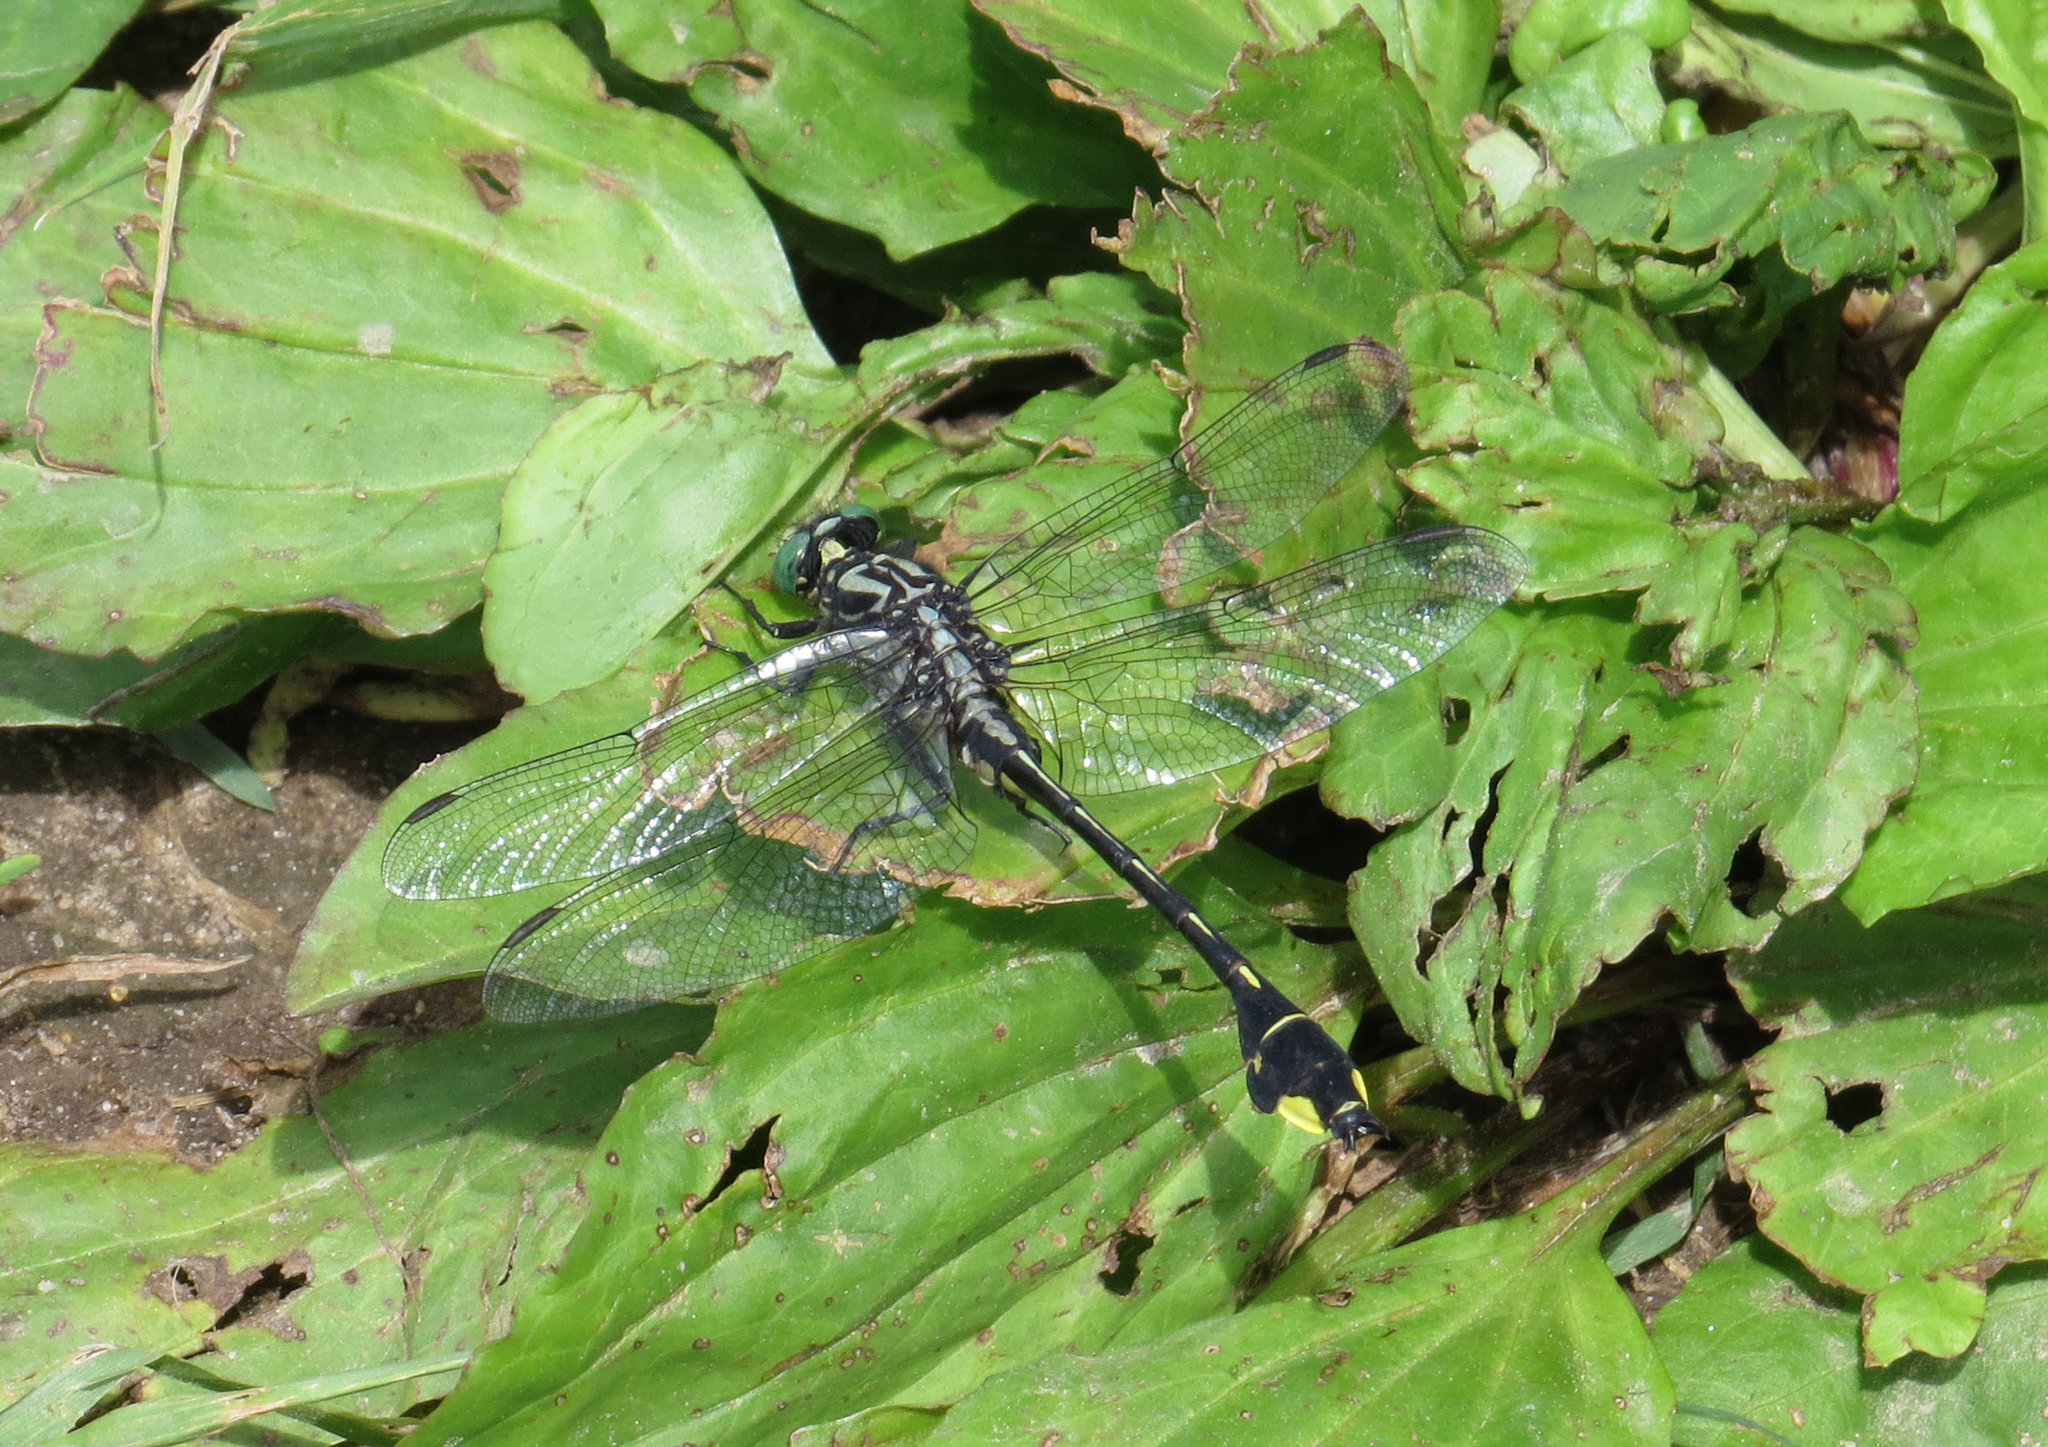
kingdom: Animalia
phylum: Arthropoda
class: Insecta
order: Odonata
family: Gomphidae
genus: Gomphurus
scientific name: Gomphurus vastus
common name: Cobra clubtail
